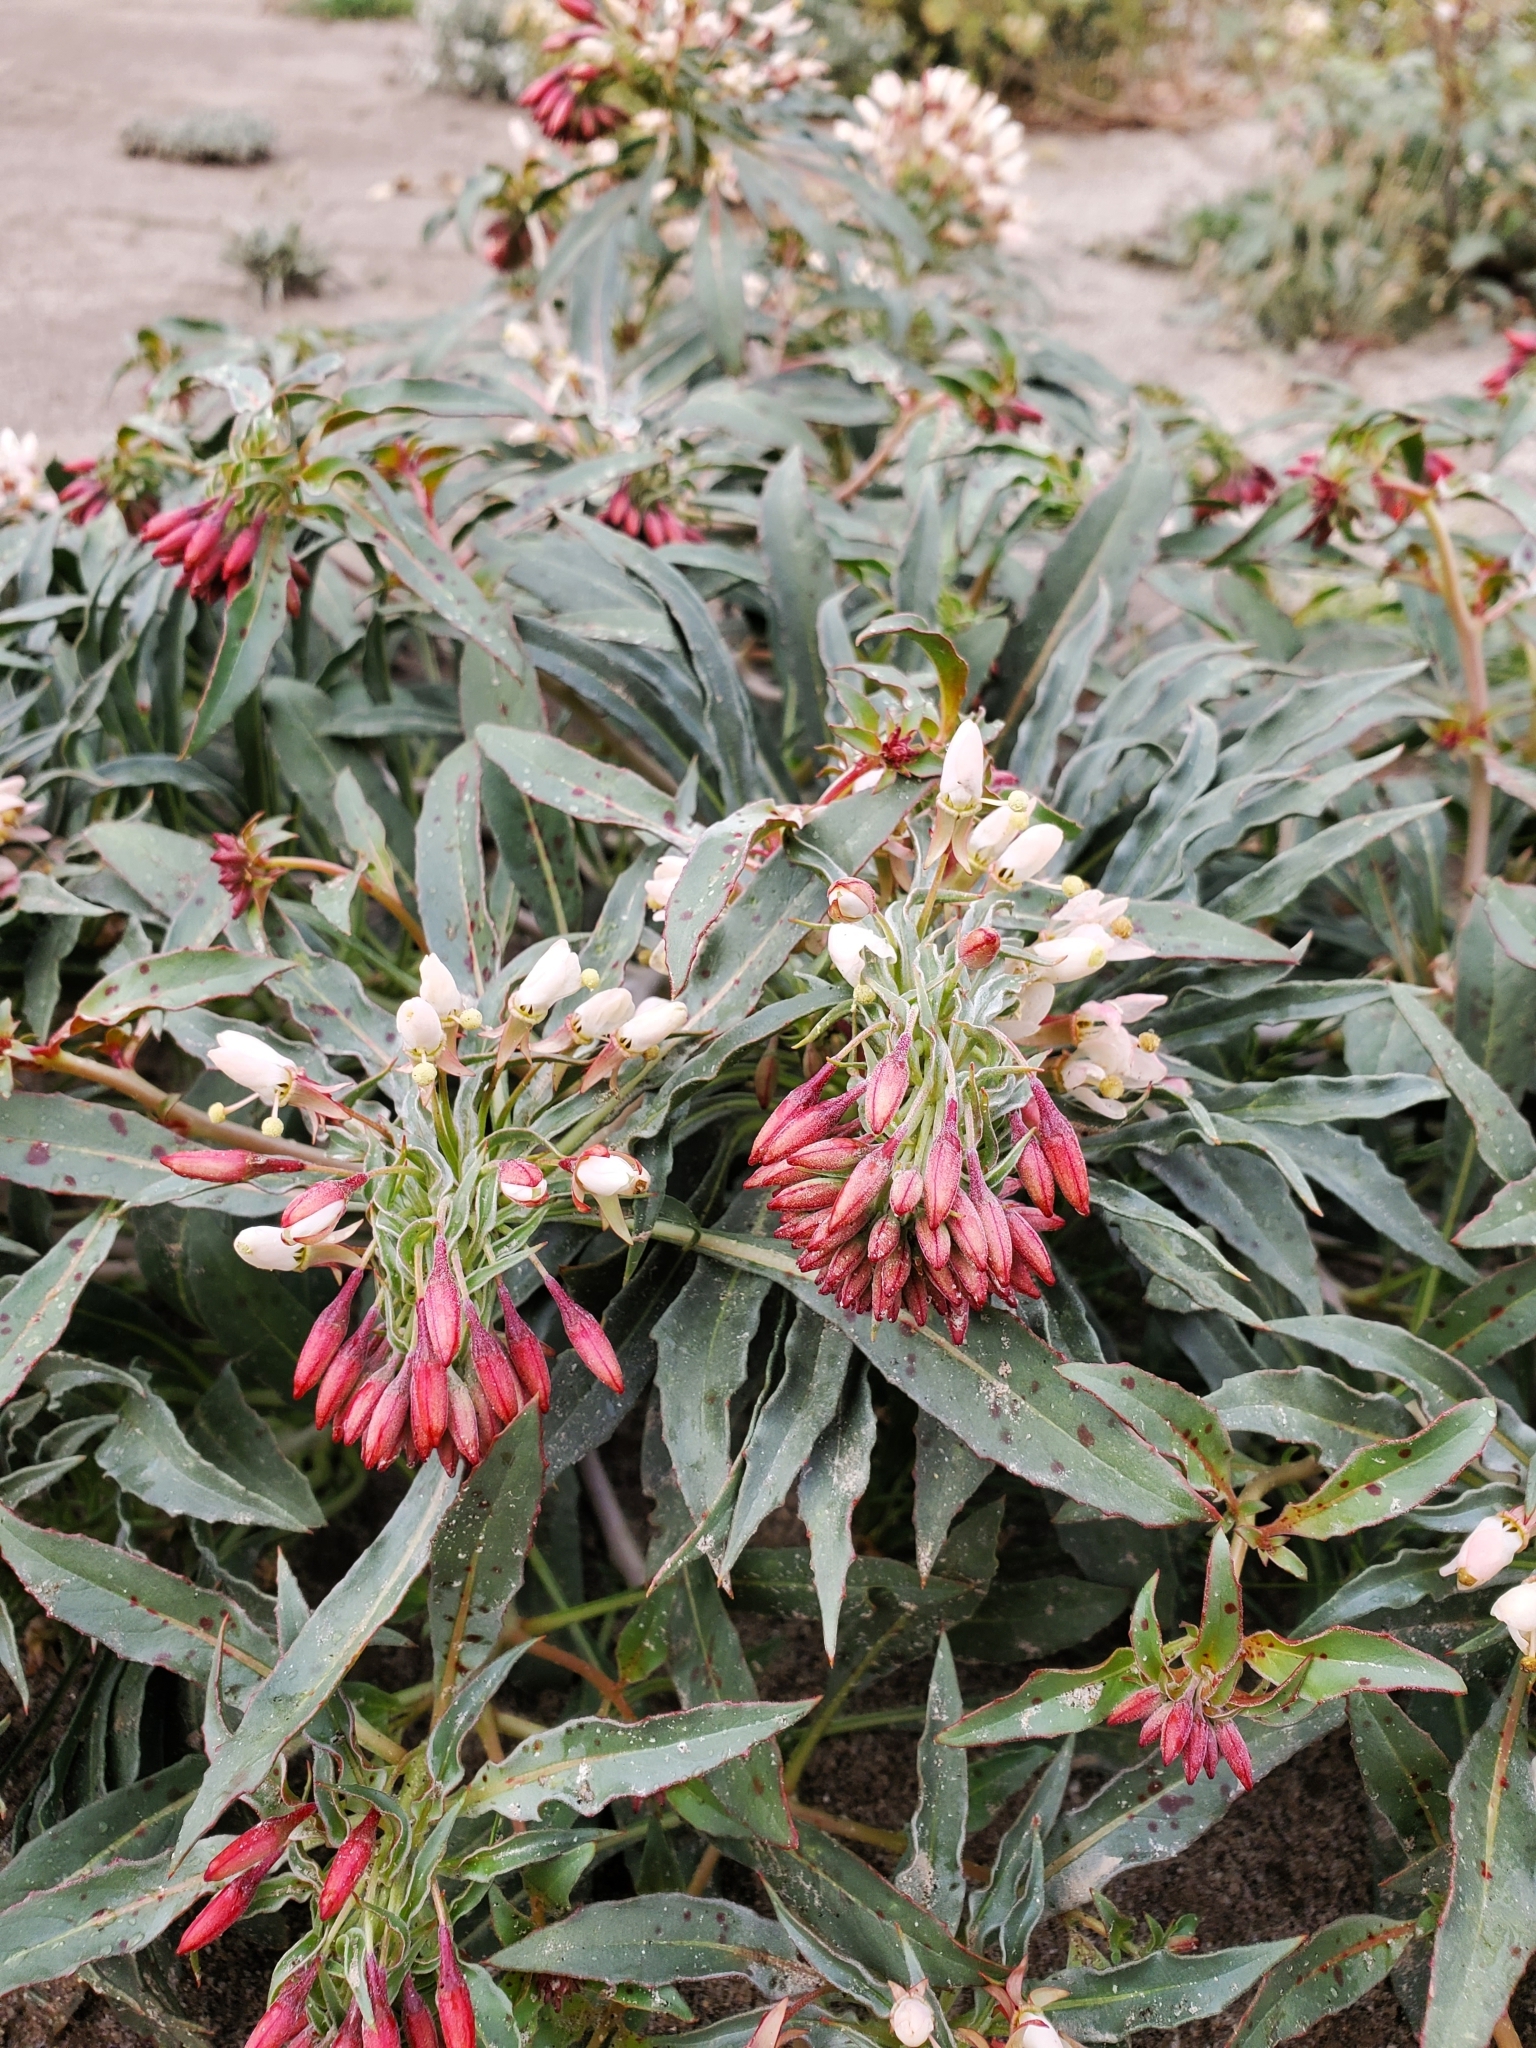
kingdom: Plantae
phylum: Tracheophyta
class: Magnoliopsida
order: Myrtales
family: Onagraceae
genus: Eremothera
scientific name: Eremothera boothii
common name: Booth's evening primrose
